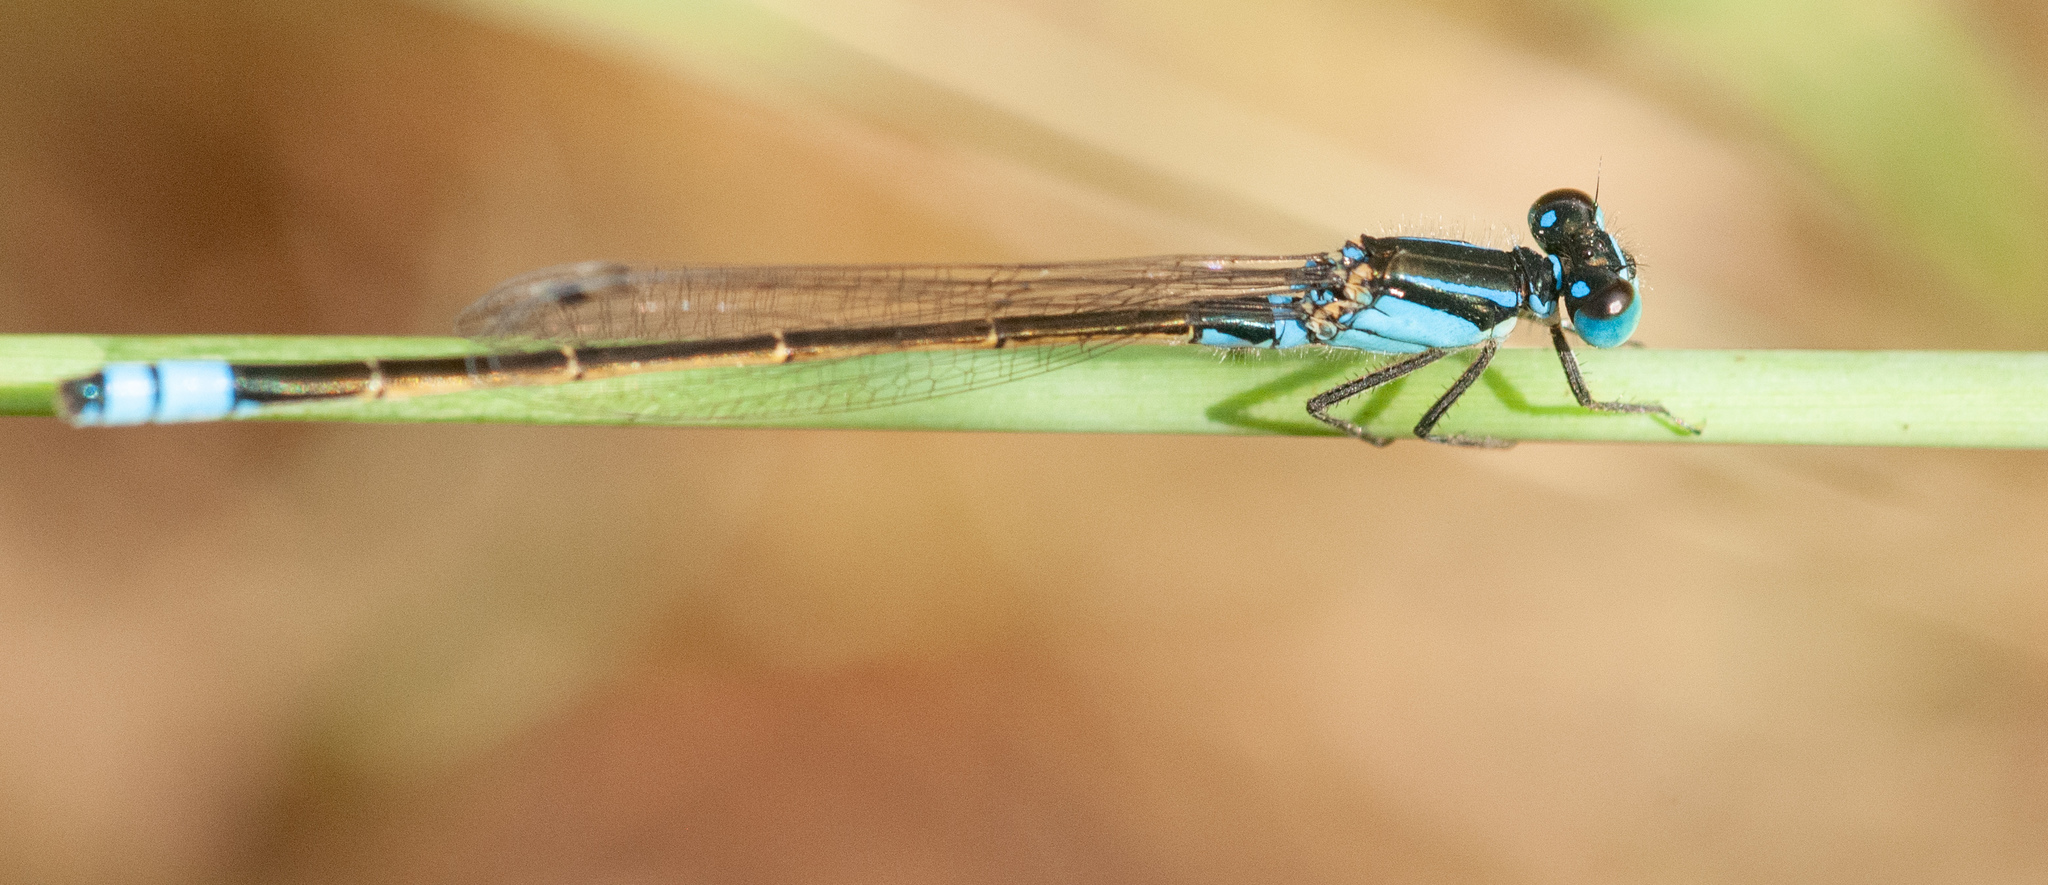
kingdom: Animalia
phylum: Arthropoda
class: Insecta
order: Odonata
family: Coenagrionidae
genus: Ischnura
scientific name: Ischnura heterosticta
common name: Common bluetail
